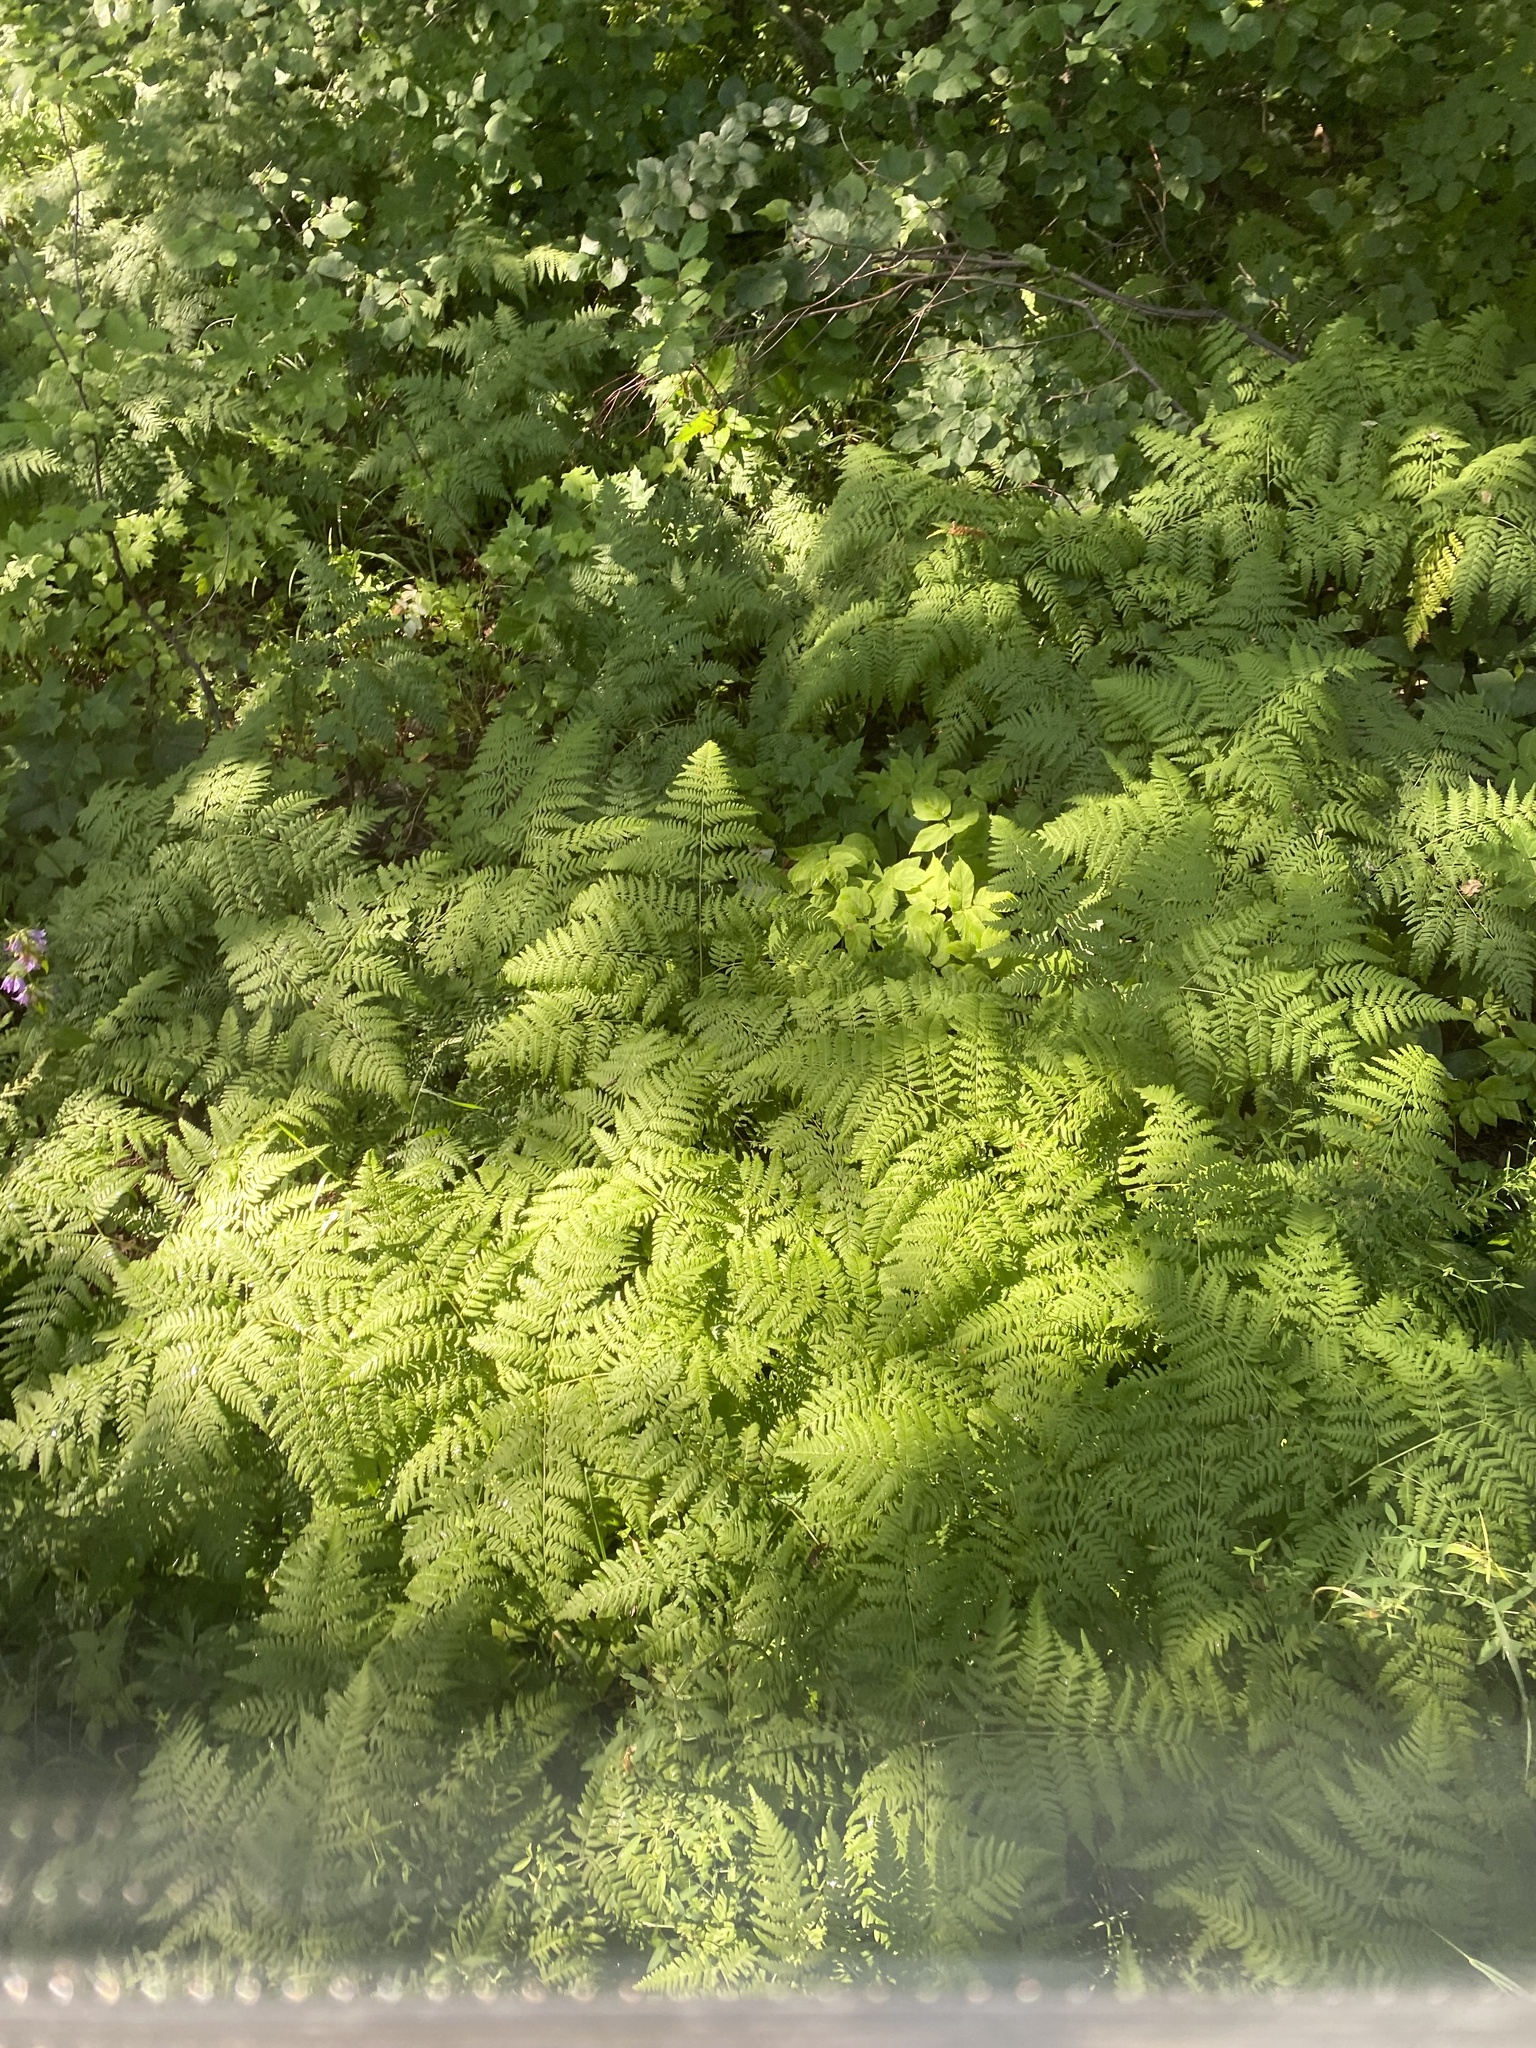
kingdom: Plantae
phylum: Tracheophyta
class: Polypodiopsida
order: Polypodiales
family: Dennstaedtiaceae
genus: Pteridium
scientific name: Pteridium aquilinum
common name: Bracken
